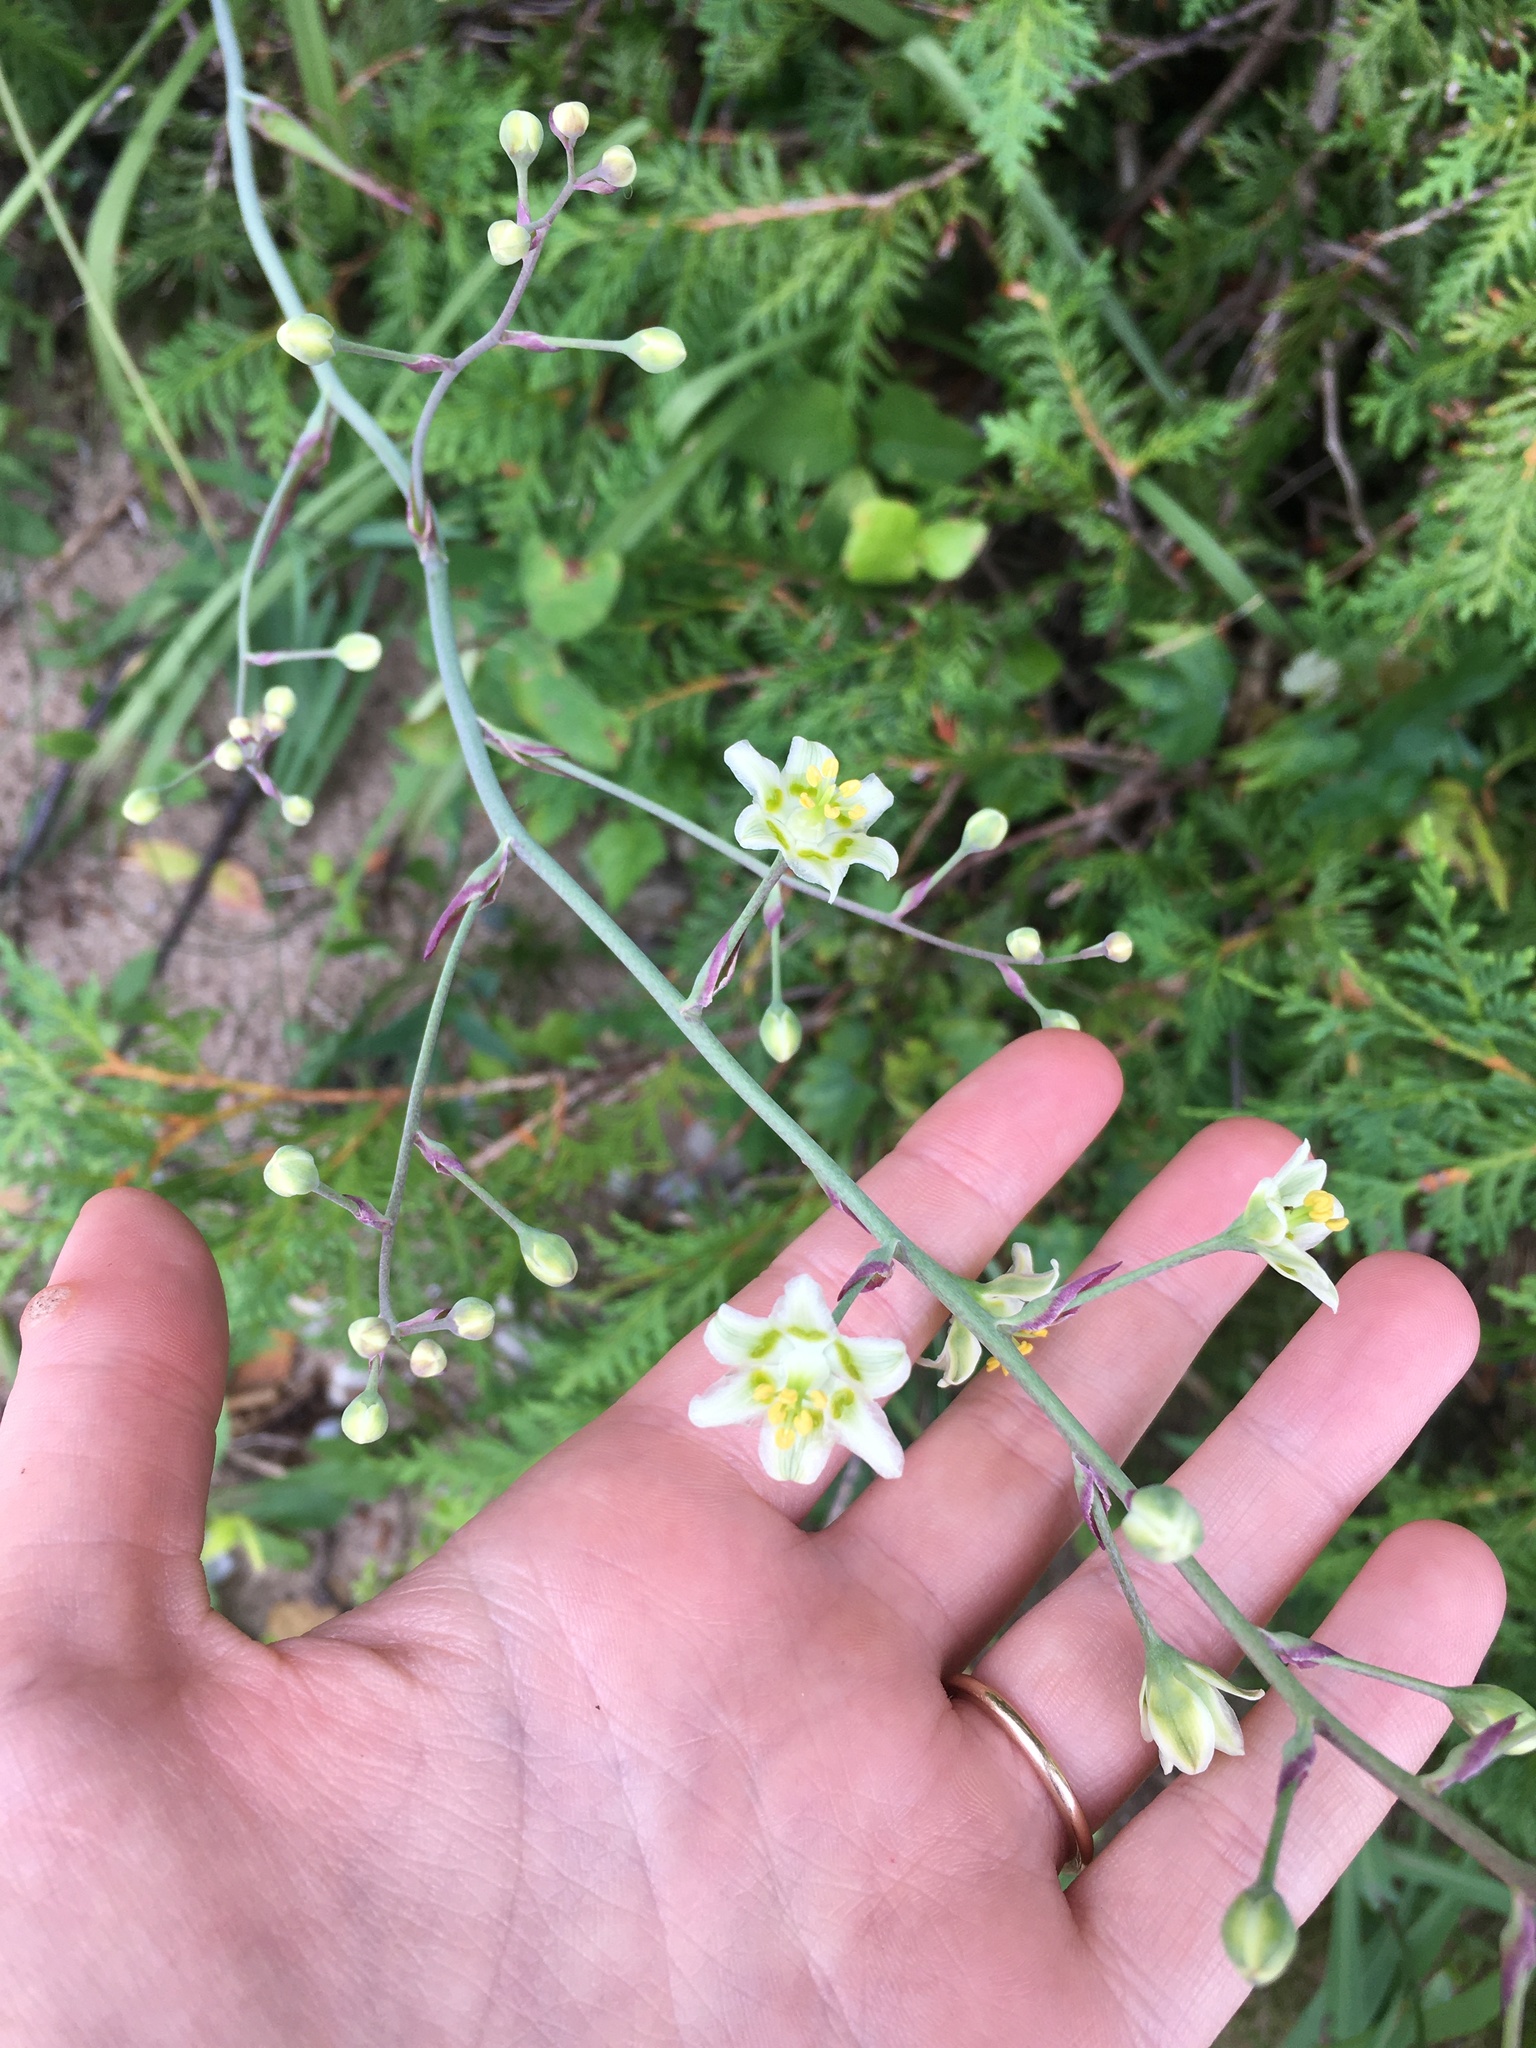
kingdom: Plantae
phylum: Tracheophyta
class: Liliopsida
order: Liliales
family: Melanthiaceae
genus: Anticlea
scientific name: Anticlea elegans
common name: Mountain death camas
